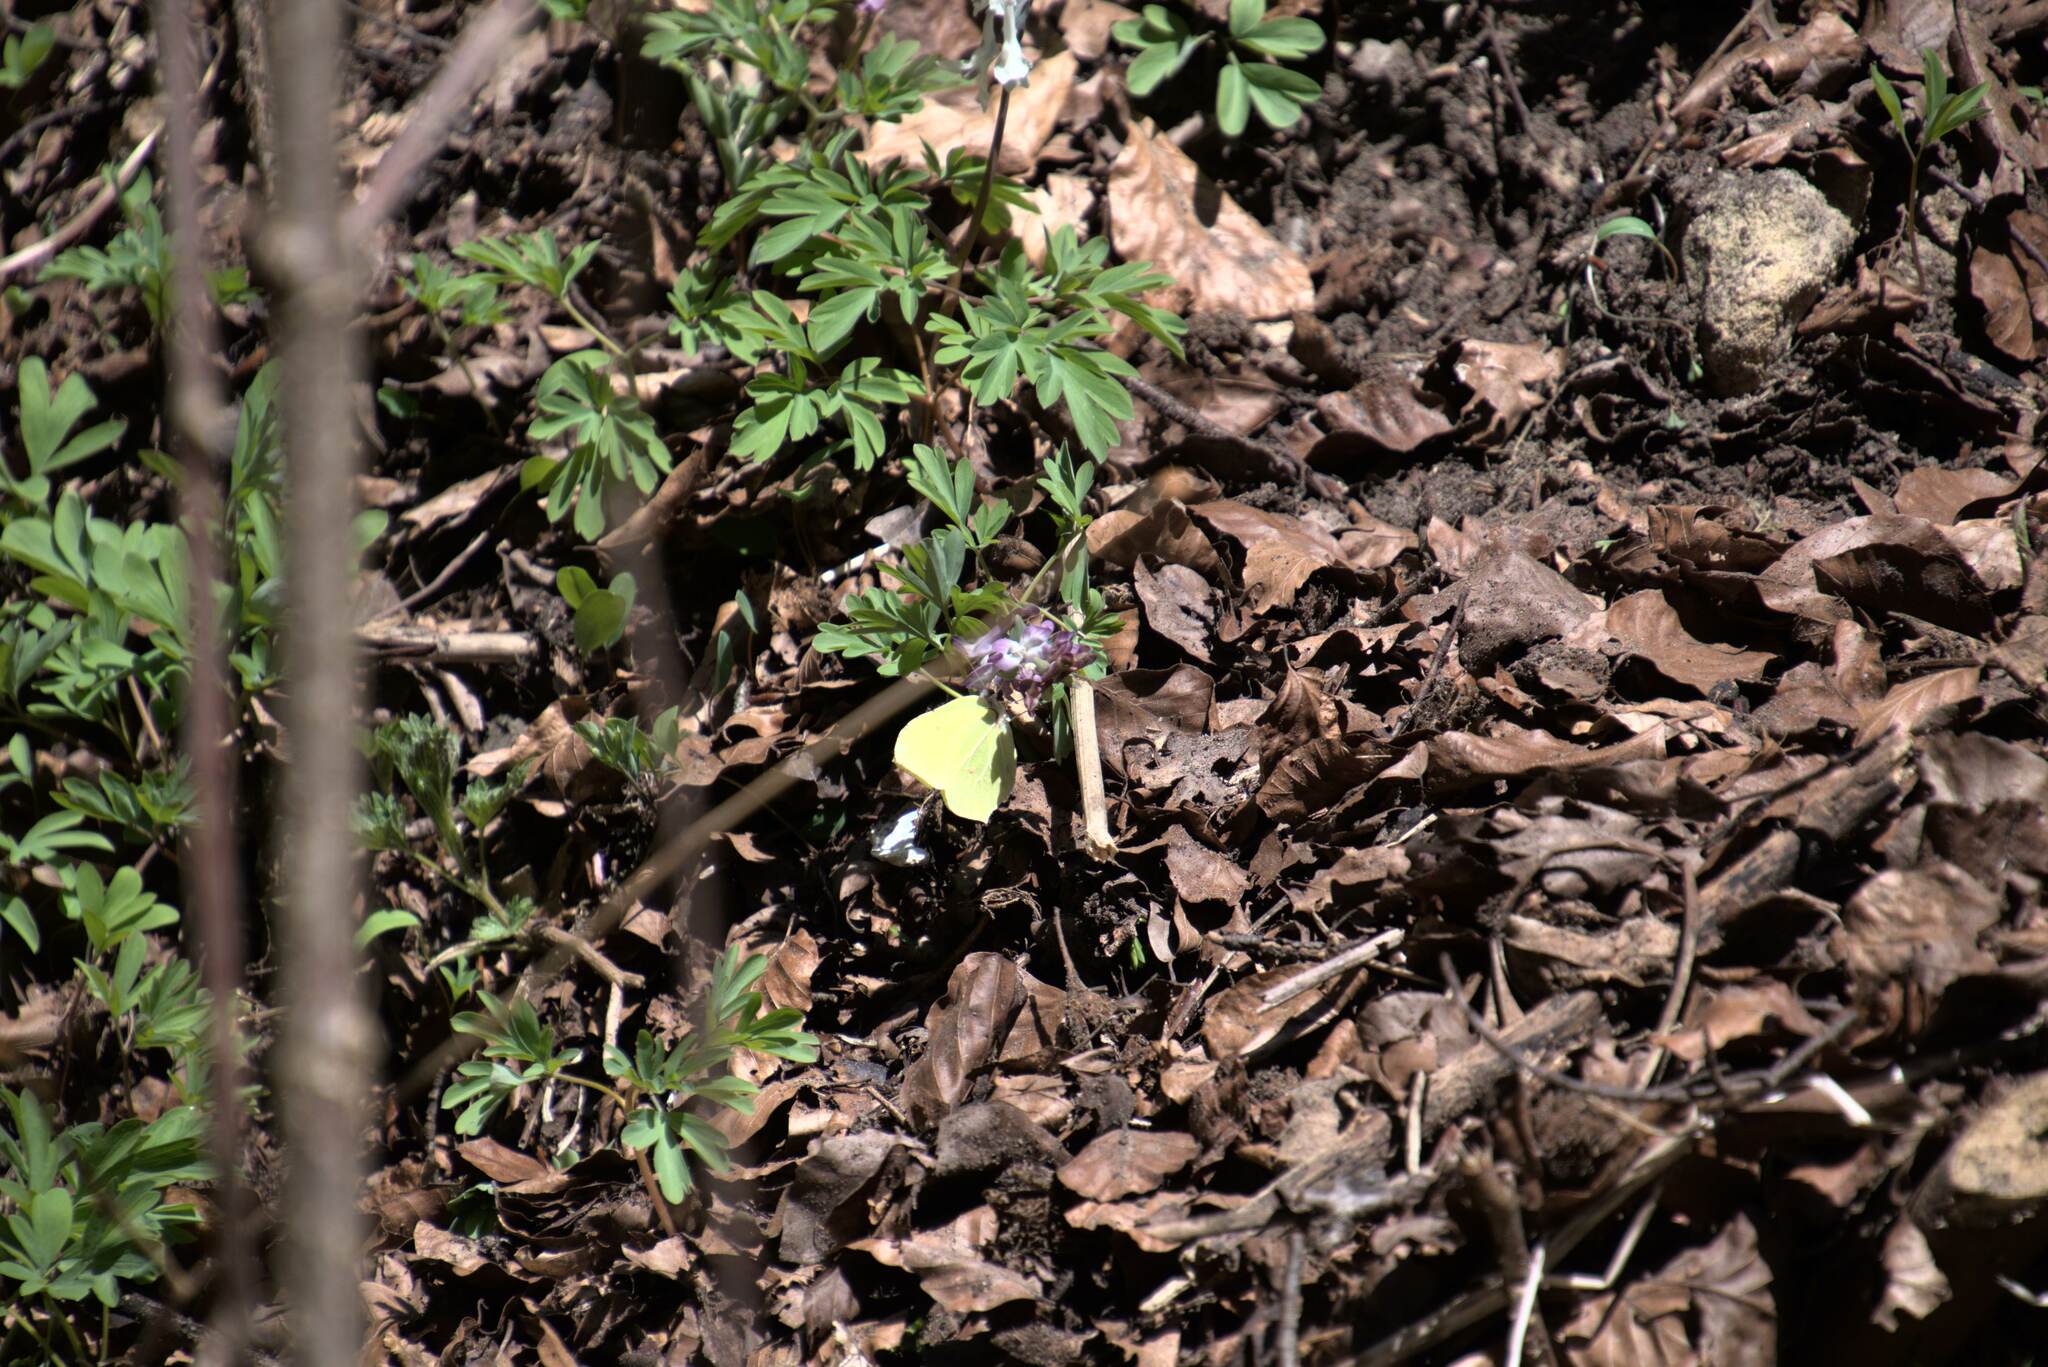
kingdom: Animalia
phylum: Arthropoda
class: Insecta
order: Lepidoptera
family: Pieridae
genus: Gonepteryx
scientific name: Gonepteryx rhamni
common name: Brimstone
